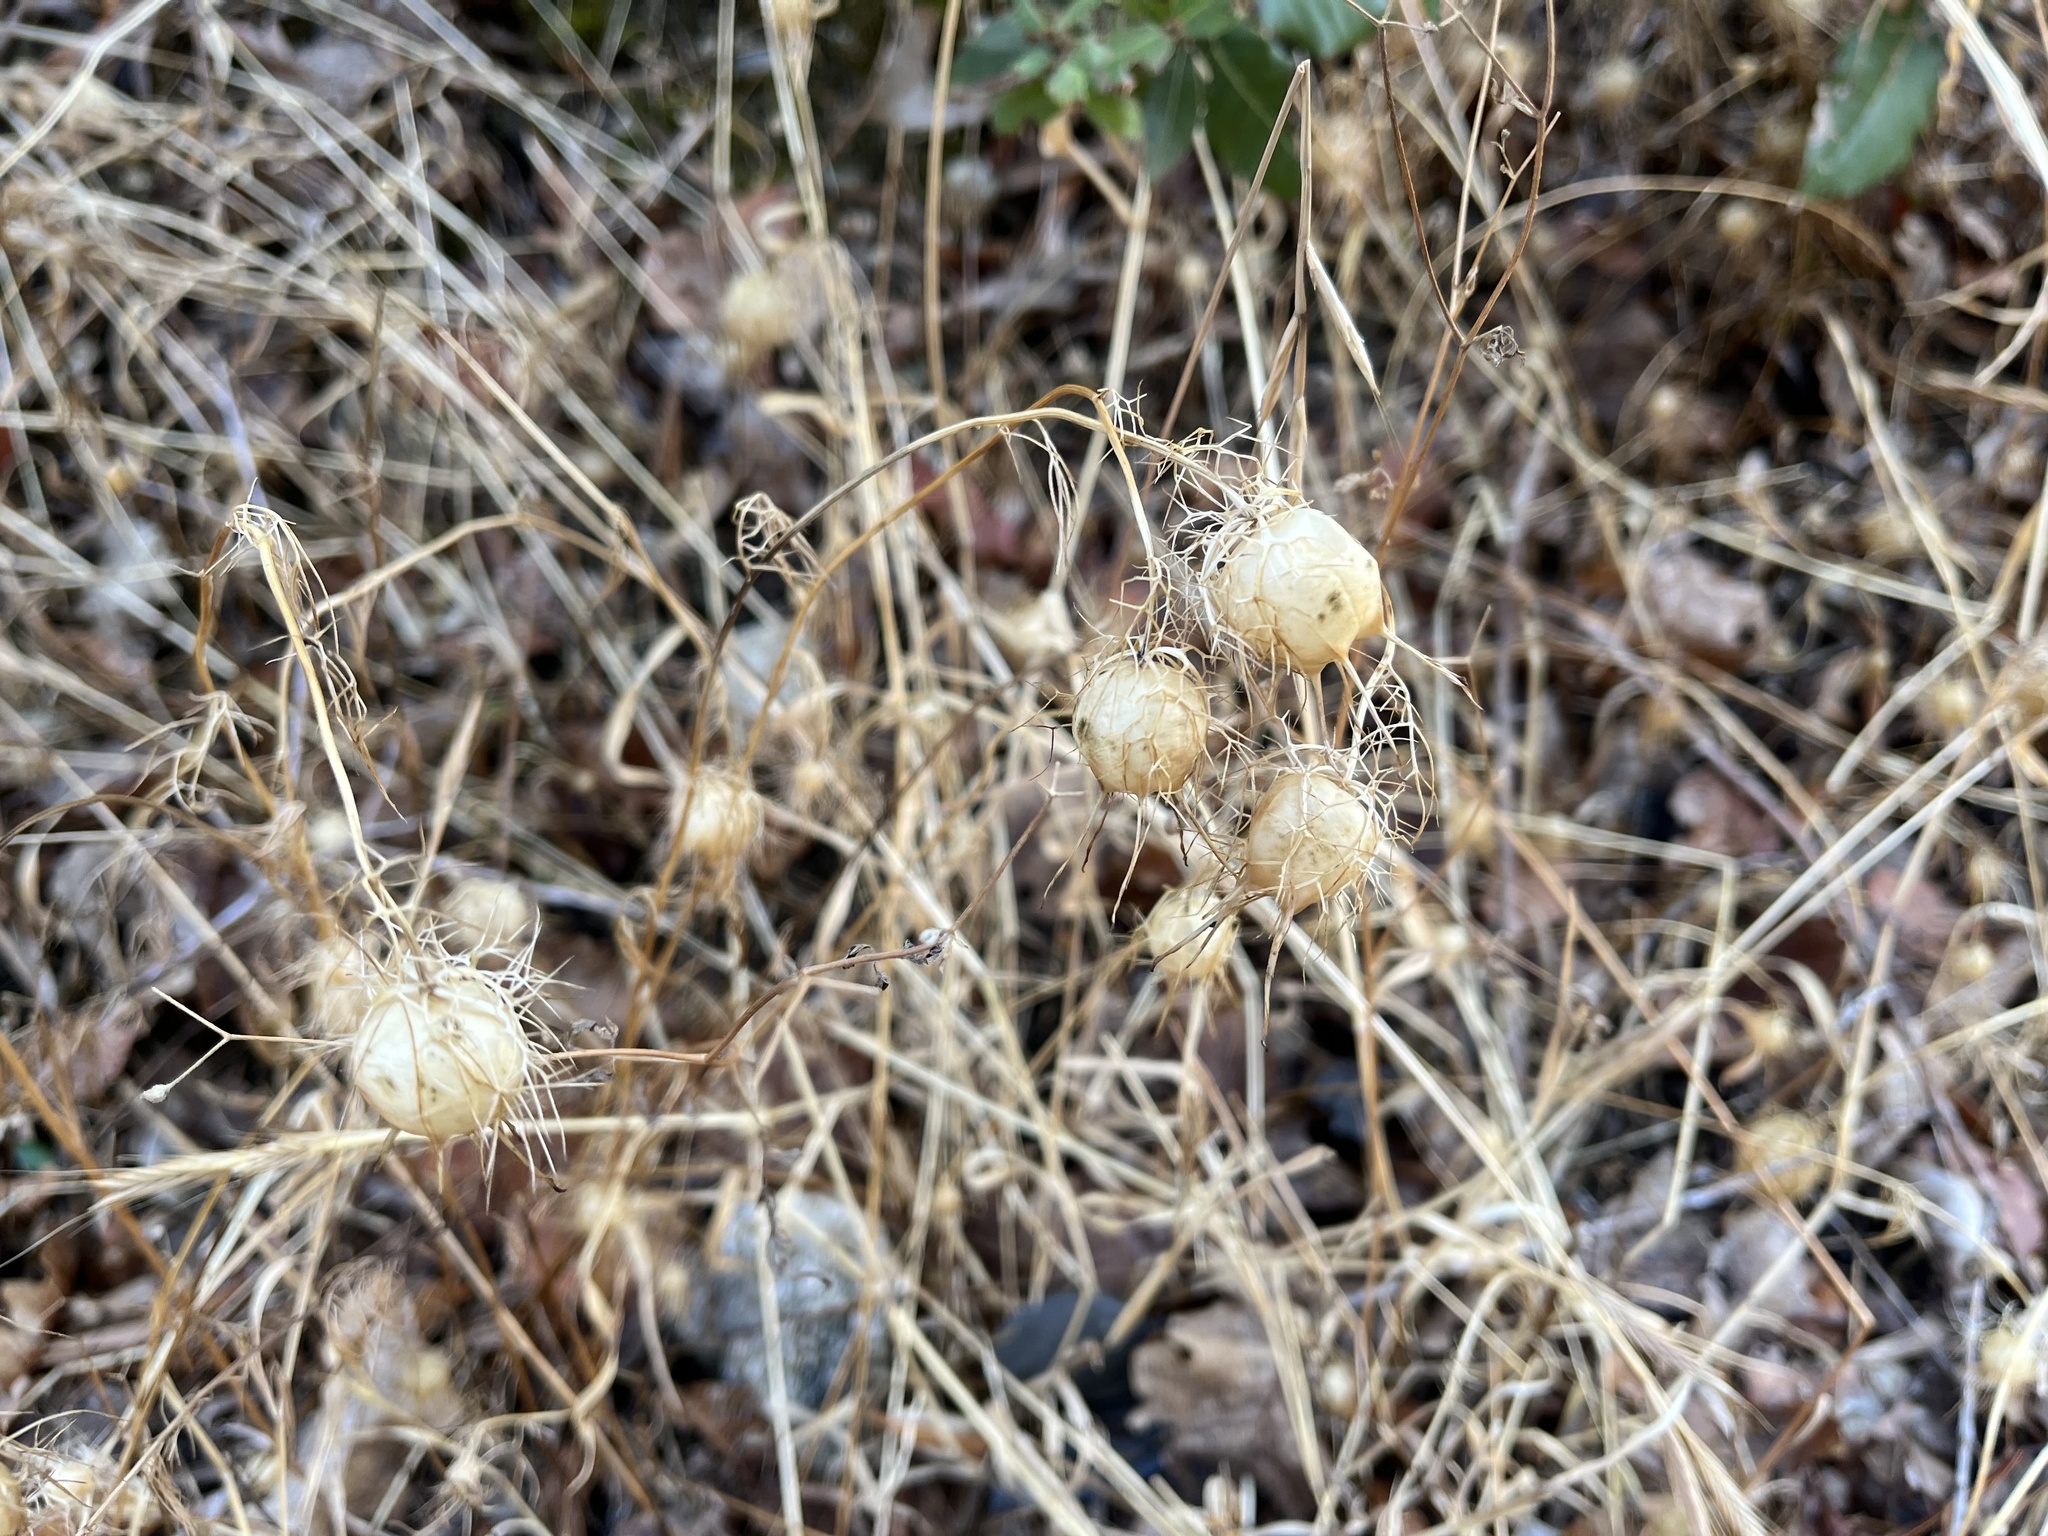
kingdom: Plantae
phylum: Tracheophyta
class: Magnoliopsida
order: Ranunculales
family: Ranunculaceae
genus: Nigella
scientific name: Nigella damascena
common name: Love-in-a-mist
